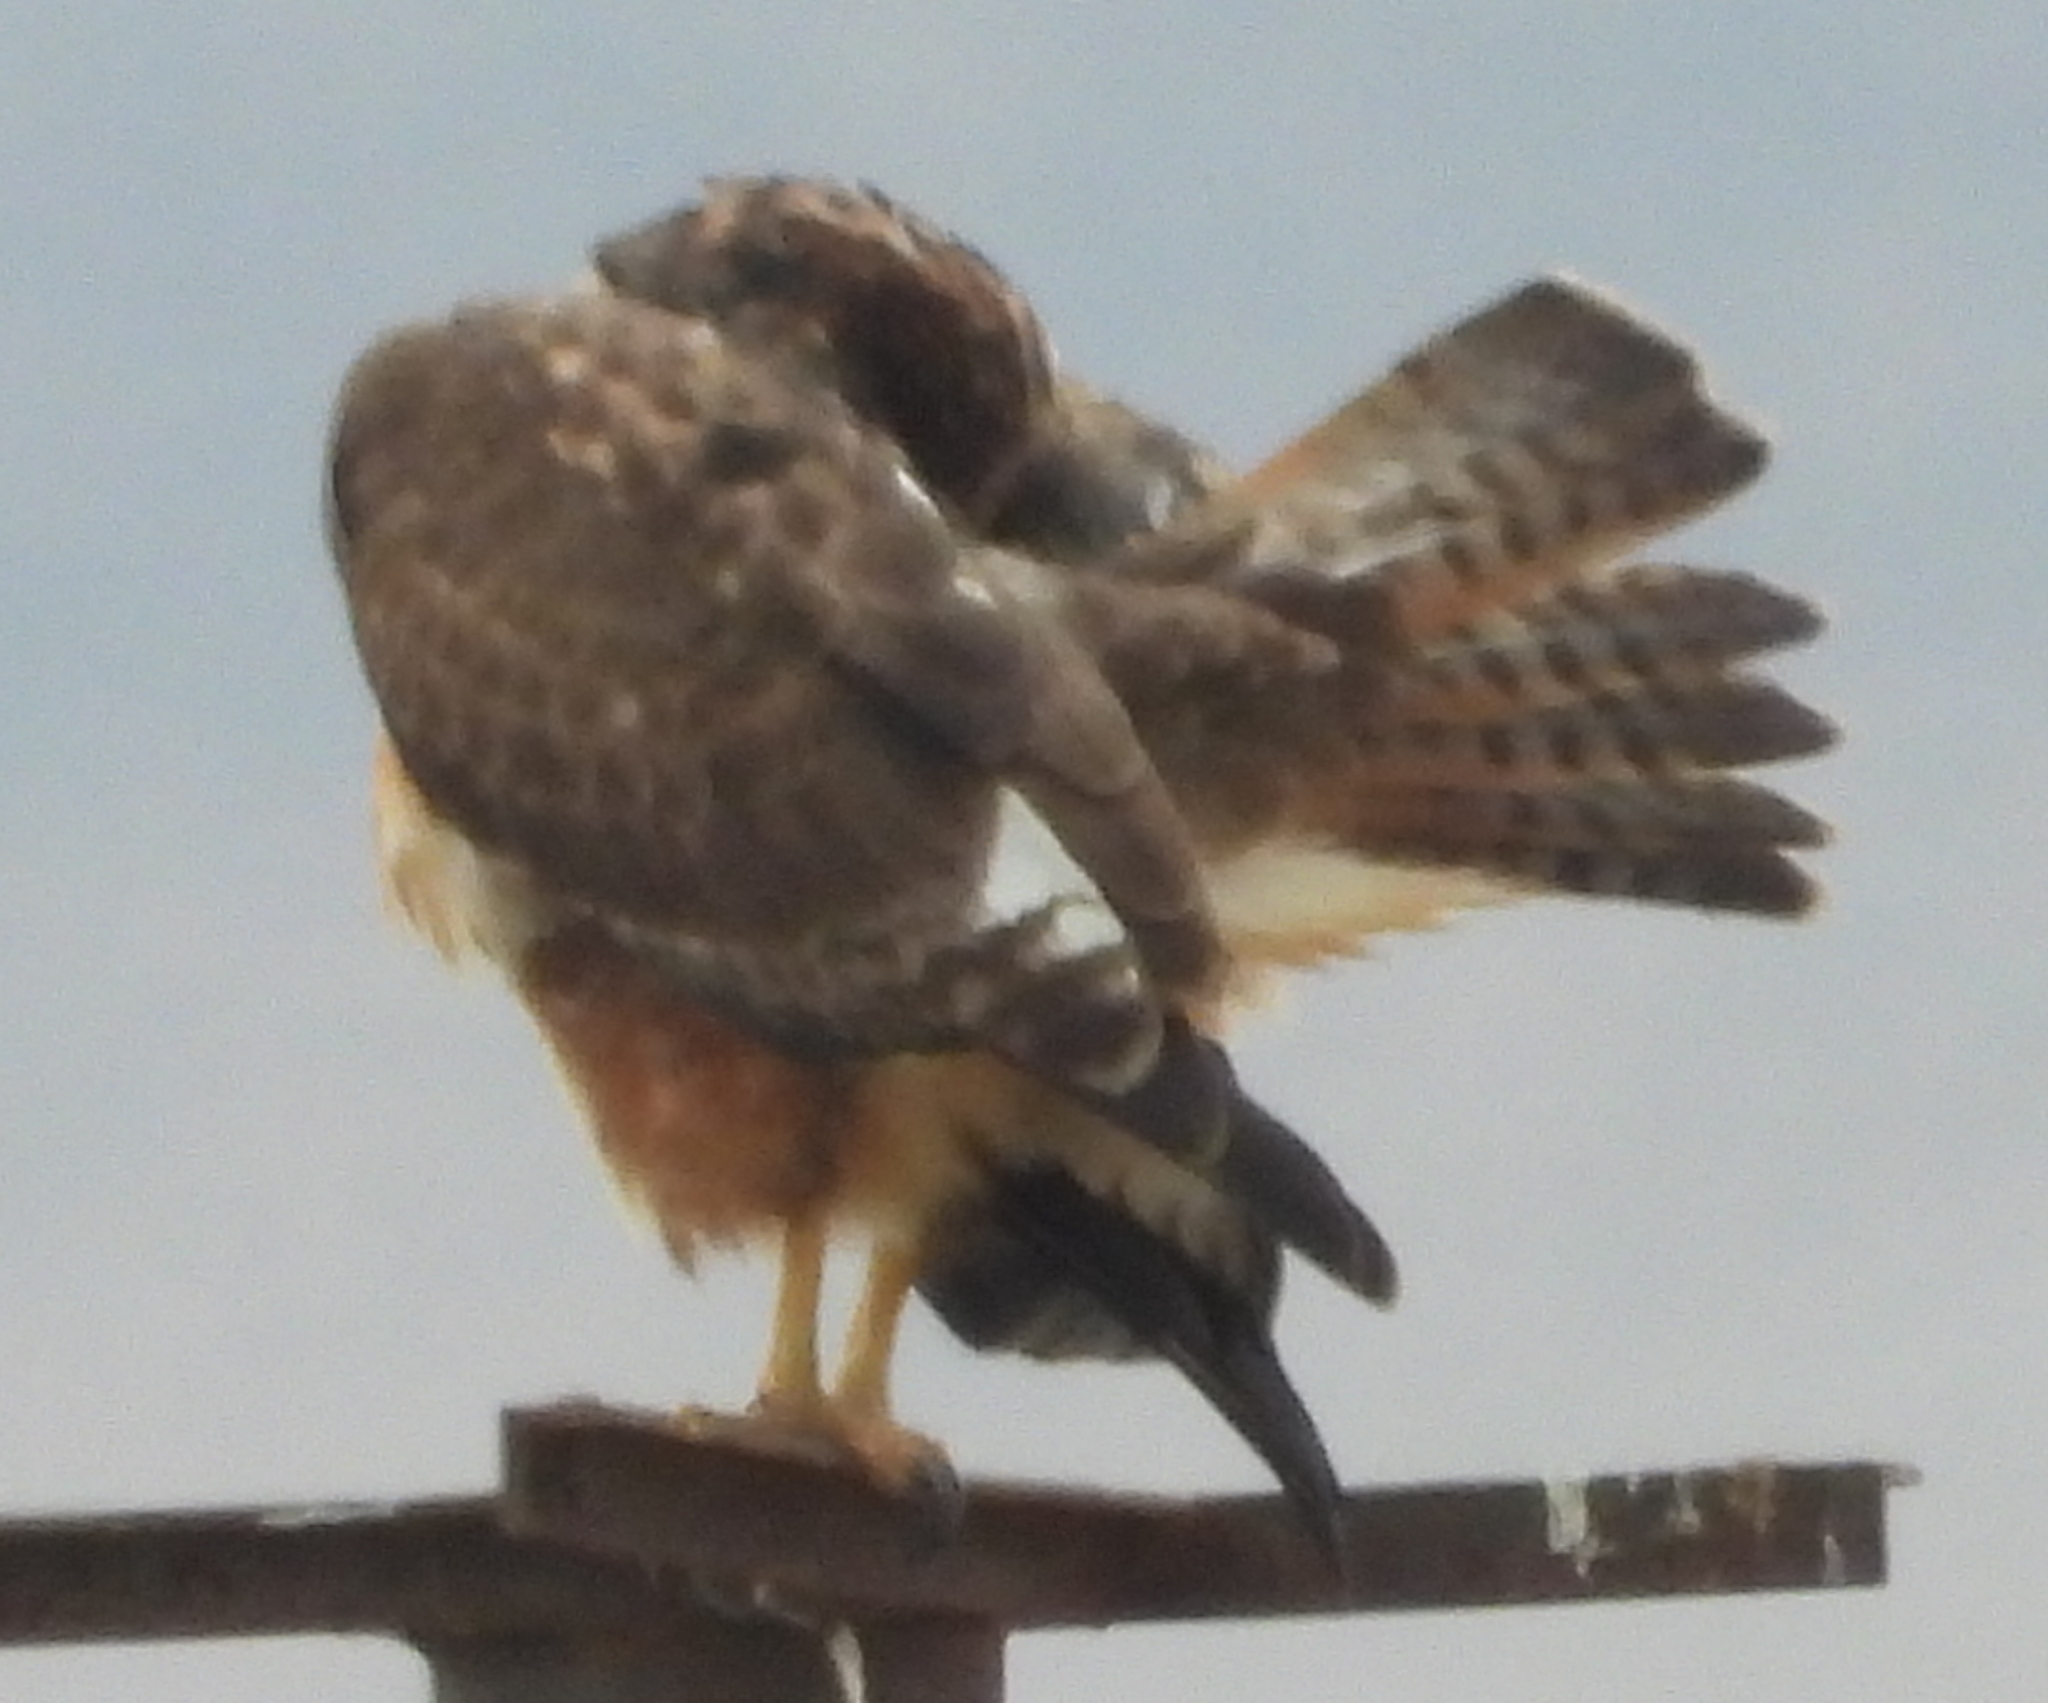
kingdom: Animalia
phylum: Chordata
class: Aves
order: Accipitriformes
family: Accipitridae
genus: Buteo
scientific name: Buteo rufofuscus
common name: Jackal buzzard
